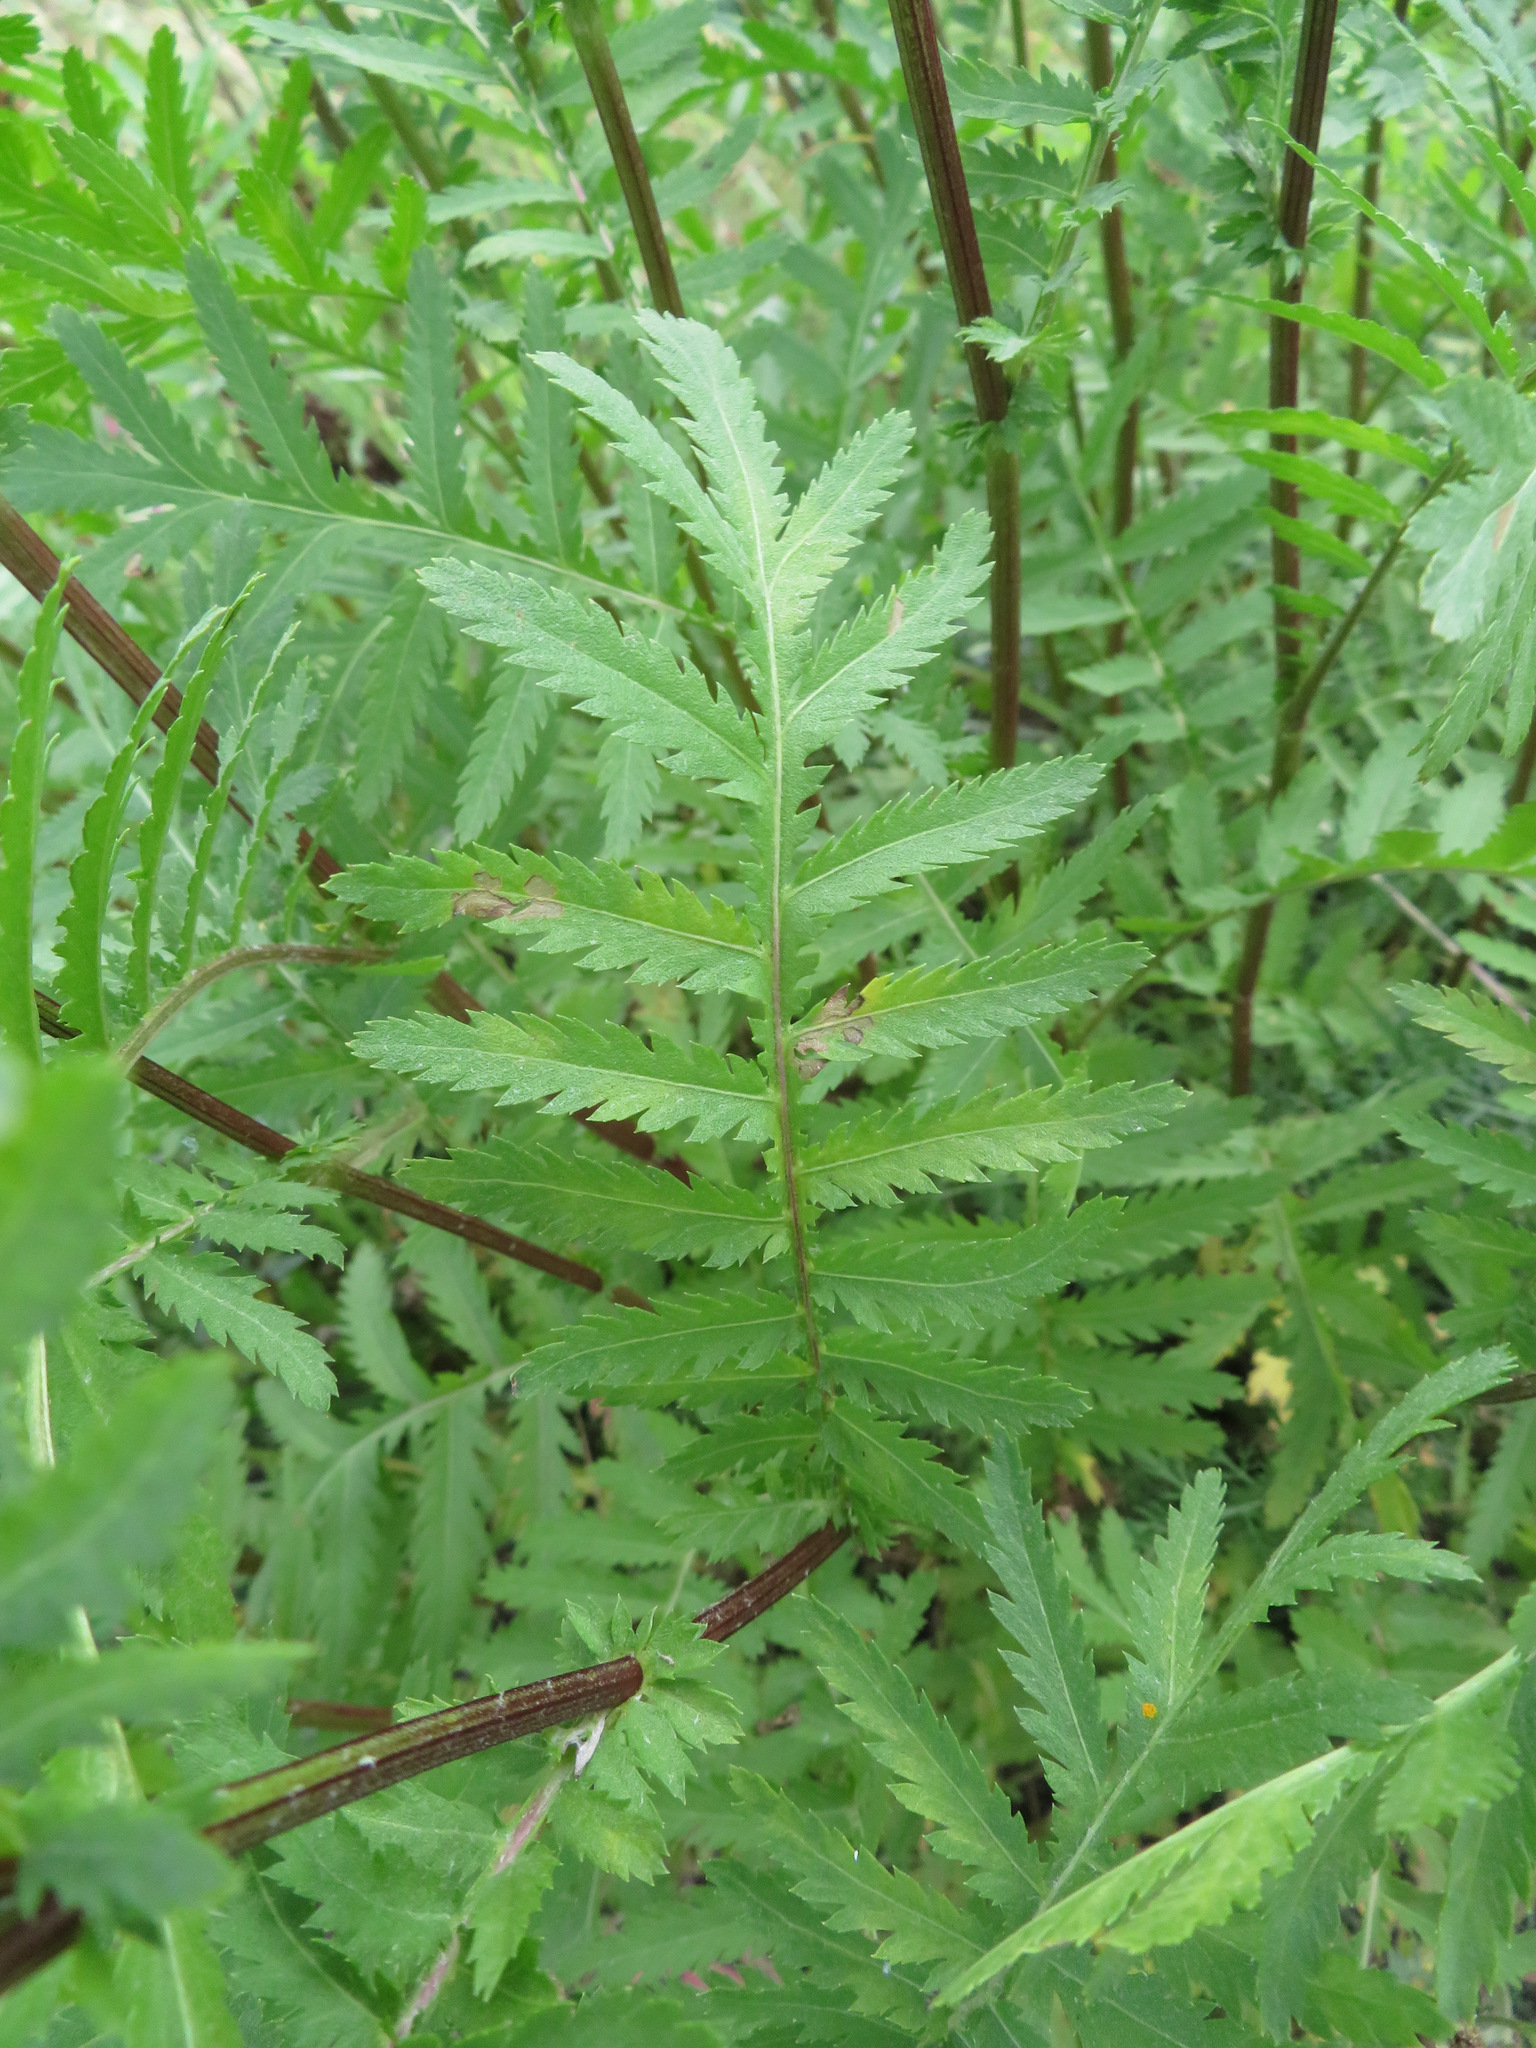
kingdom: Plantae
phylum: Tracheophyta
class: Magnoliopsida
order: Asterales
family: Asteraceae
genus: Tanacetum
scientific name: Tanacetum vulgare
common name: Common tansy
